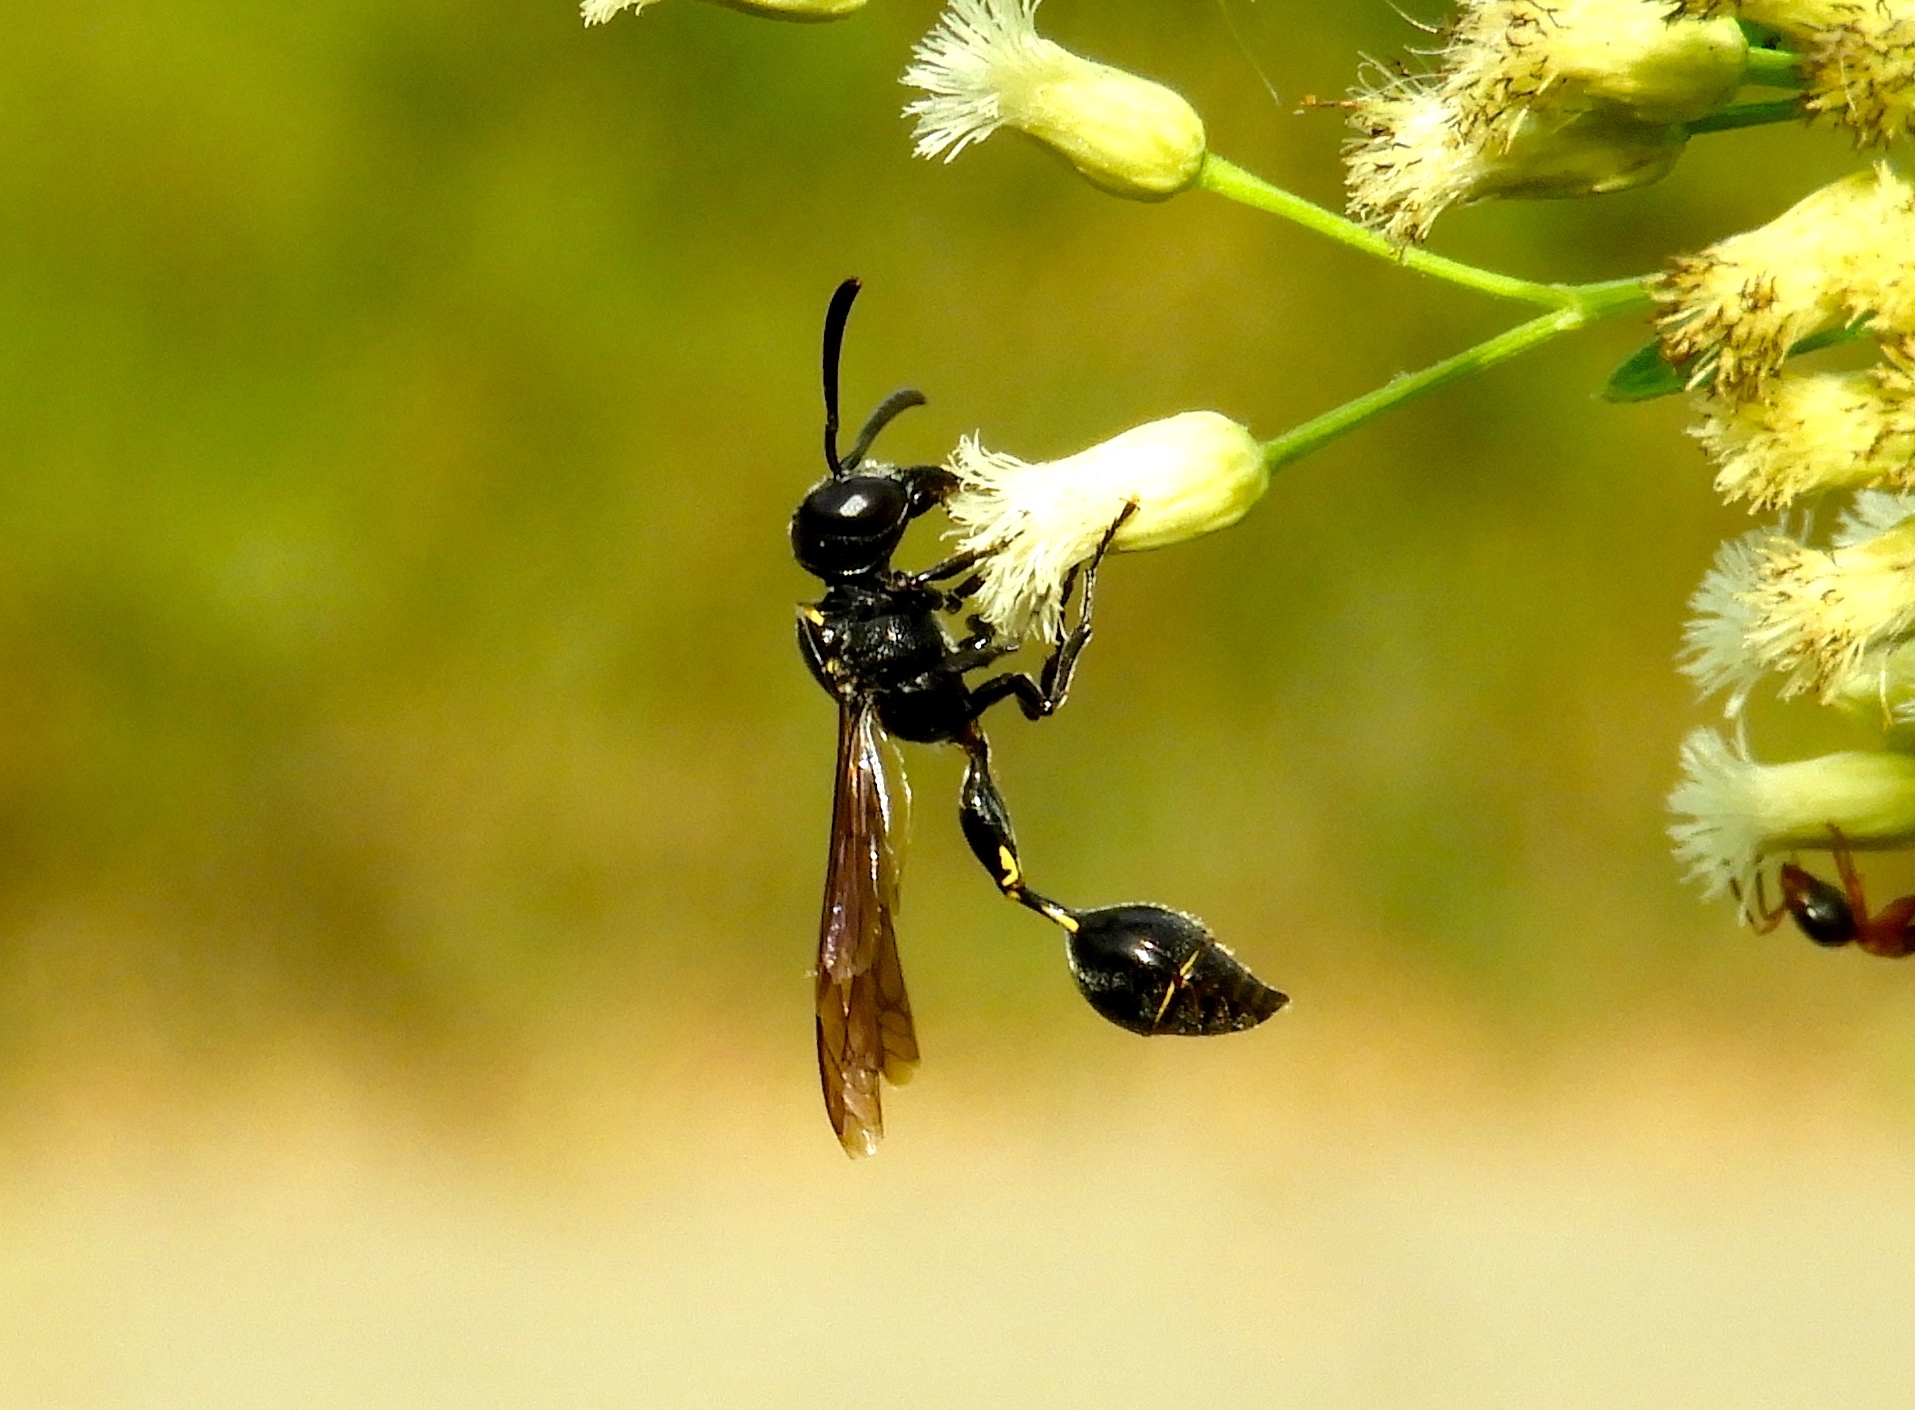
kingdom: Animalia
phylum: Arthropoda
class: Insecta
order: Hymenoptera
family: Eumenidae
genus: Zethus
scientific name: Zethus smithii
